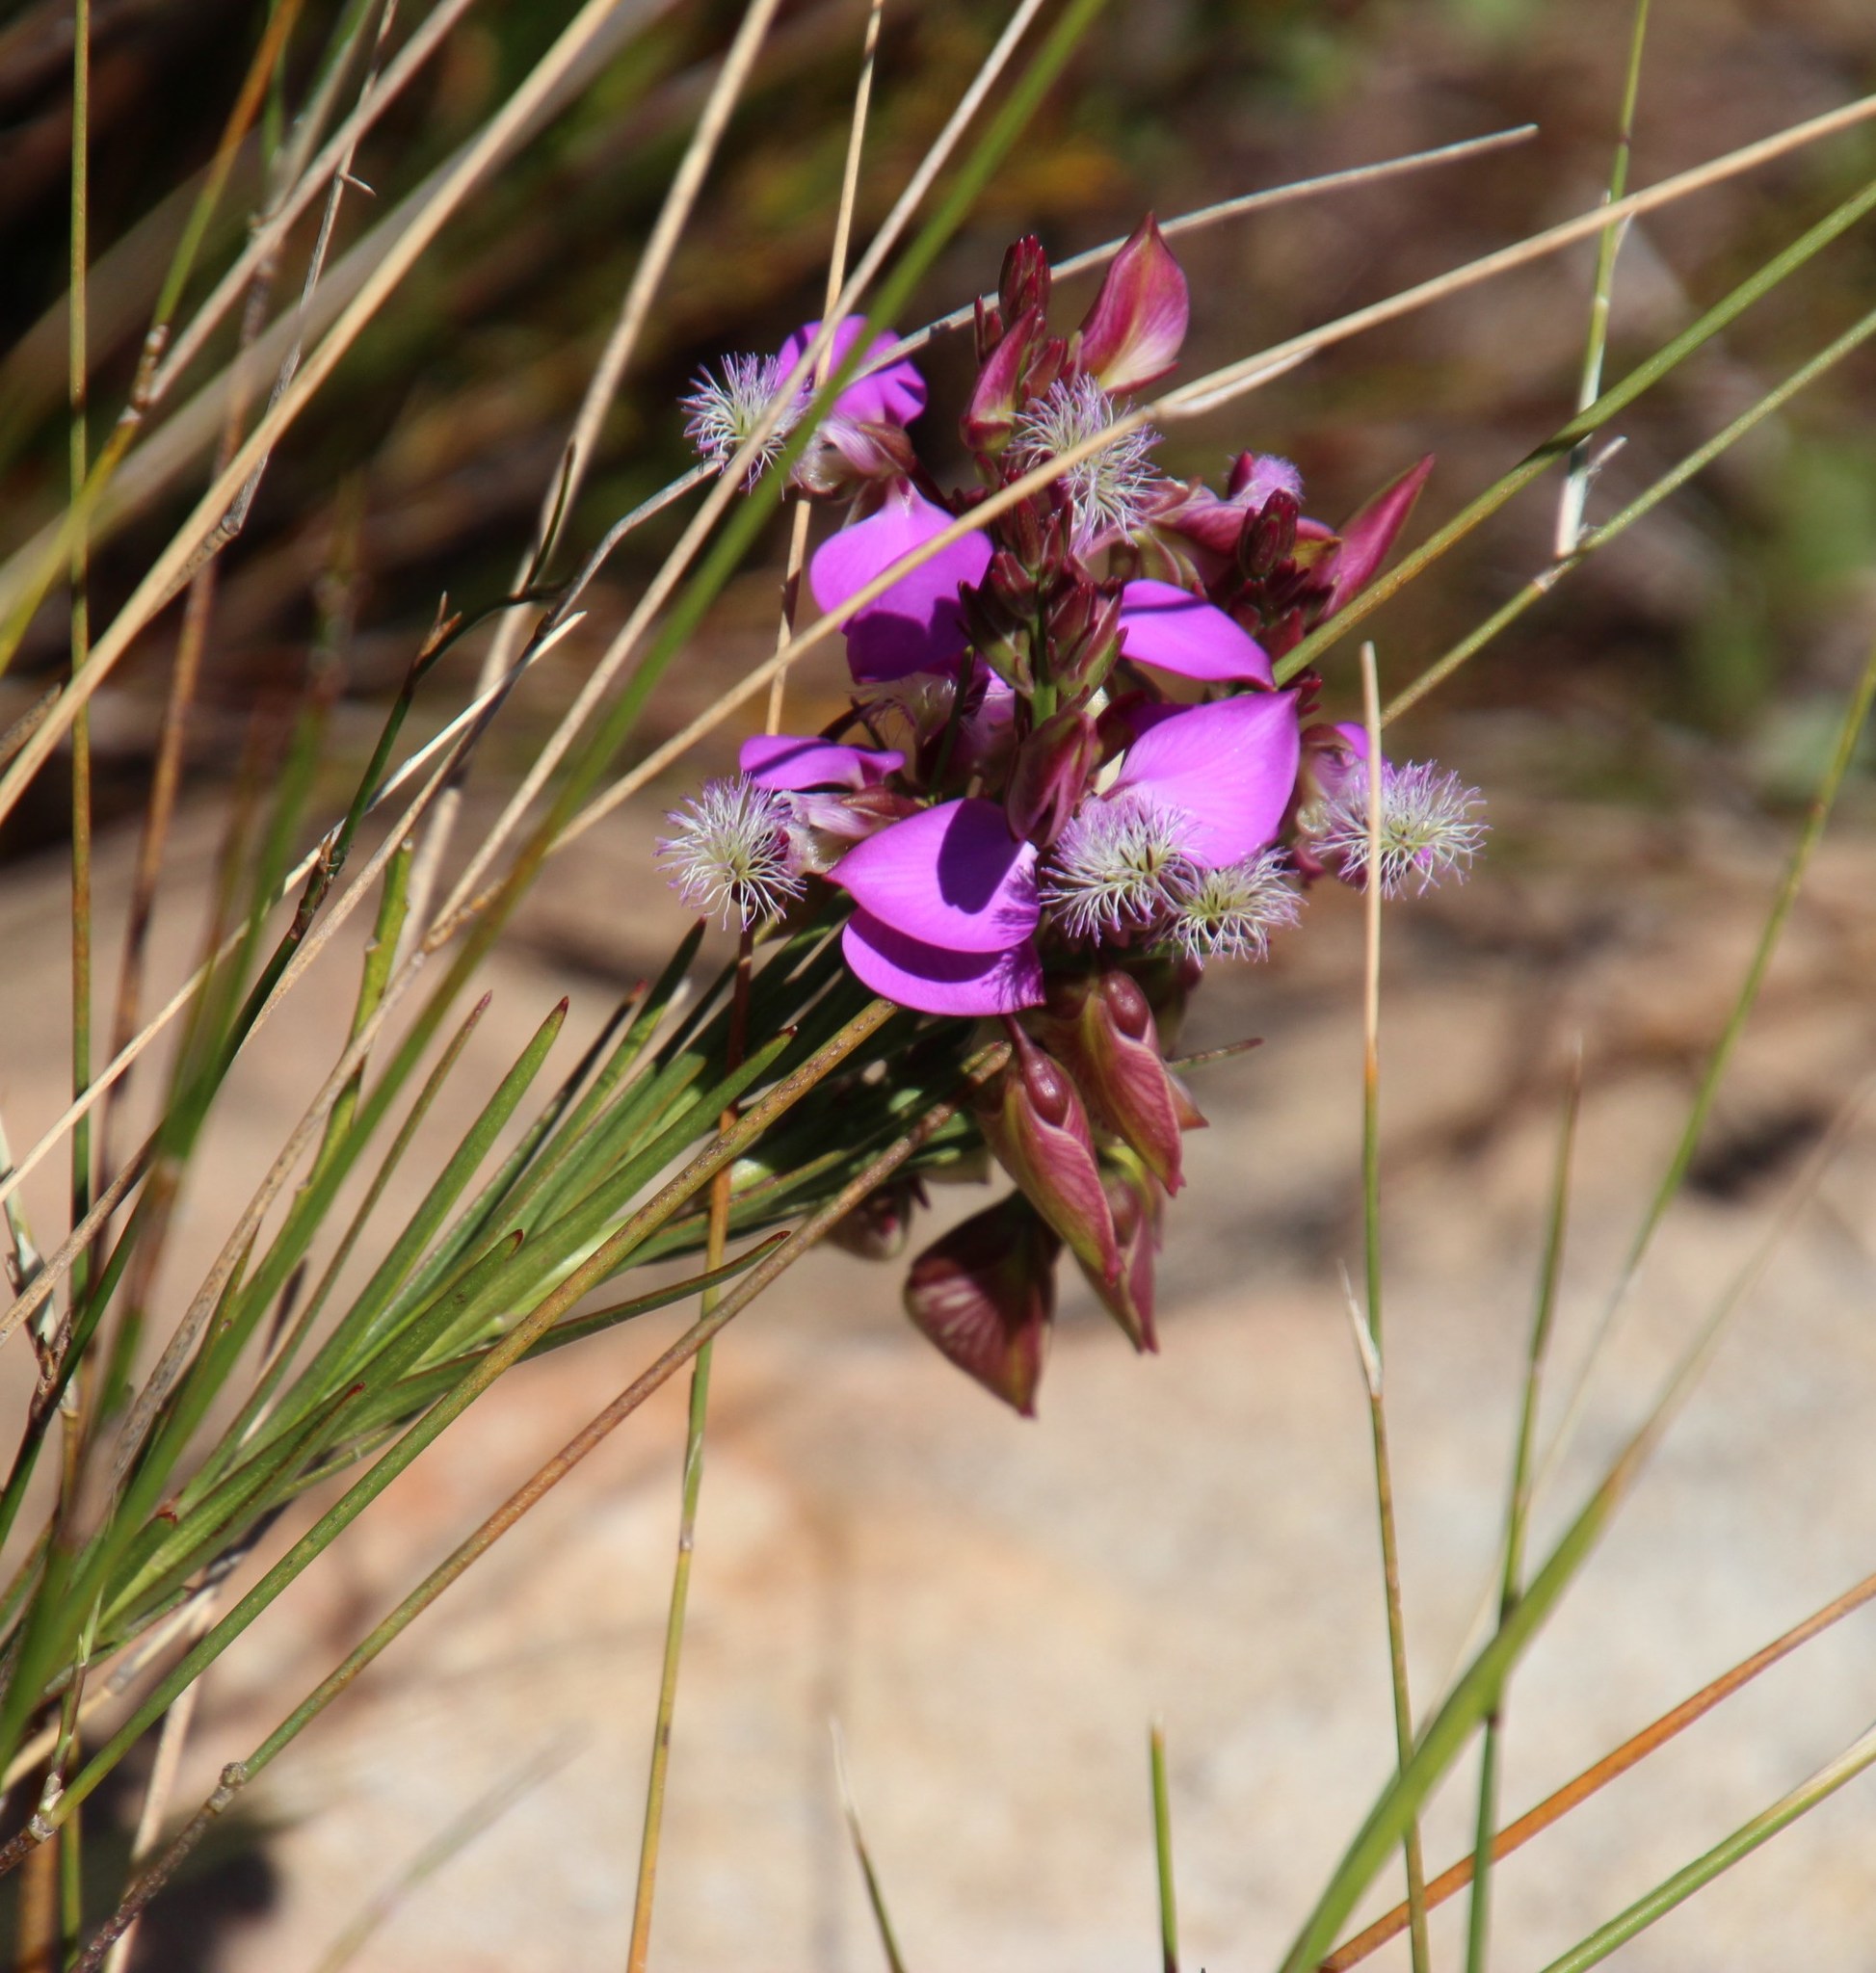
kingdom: Plantae
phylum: Tracheophyta
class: Magnoliopsida
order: Fabales
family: Polygalaceae
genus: Polygala
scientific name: Polygala bracteolata
